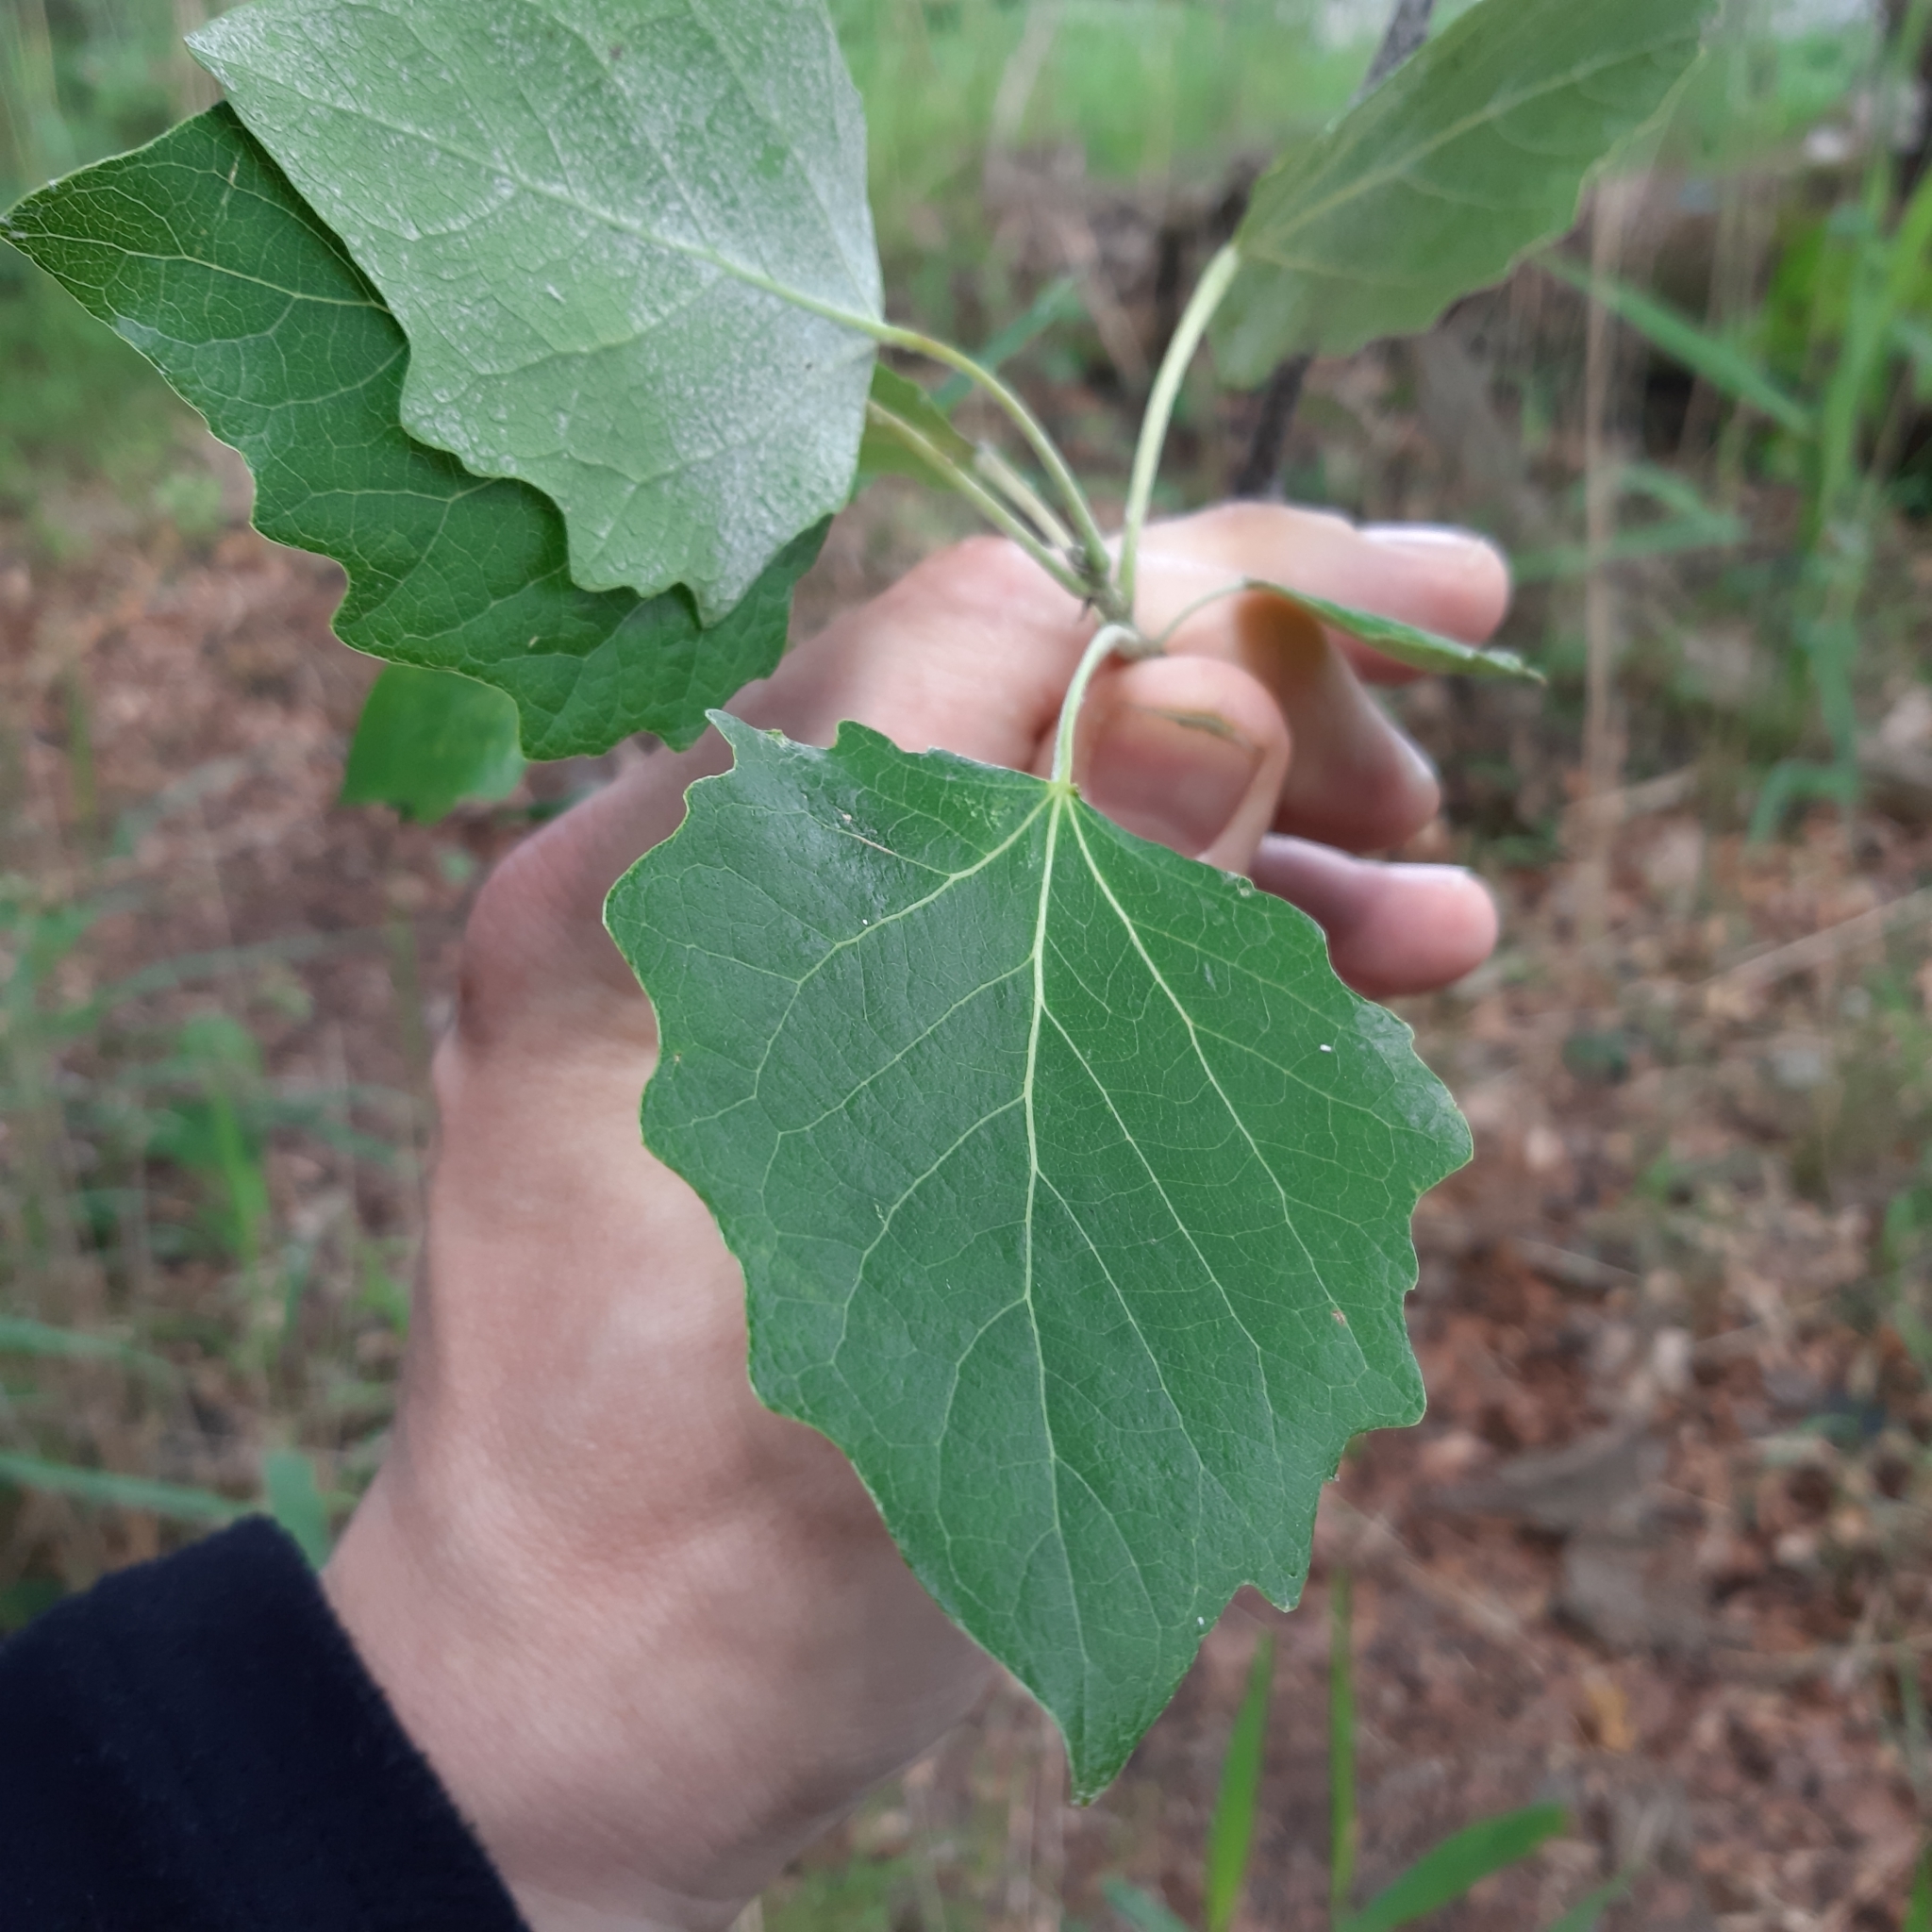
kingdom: Plantae
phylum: Tracheophyta
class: Magnoliopsida
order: Malpighiales
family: Salicaceae
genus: Populus
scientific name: Populus tremula
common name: European aspen
